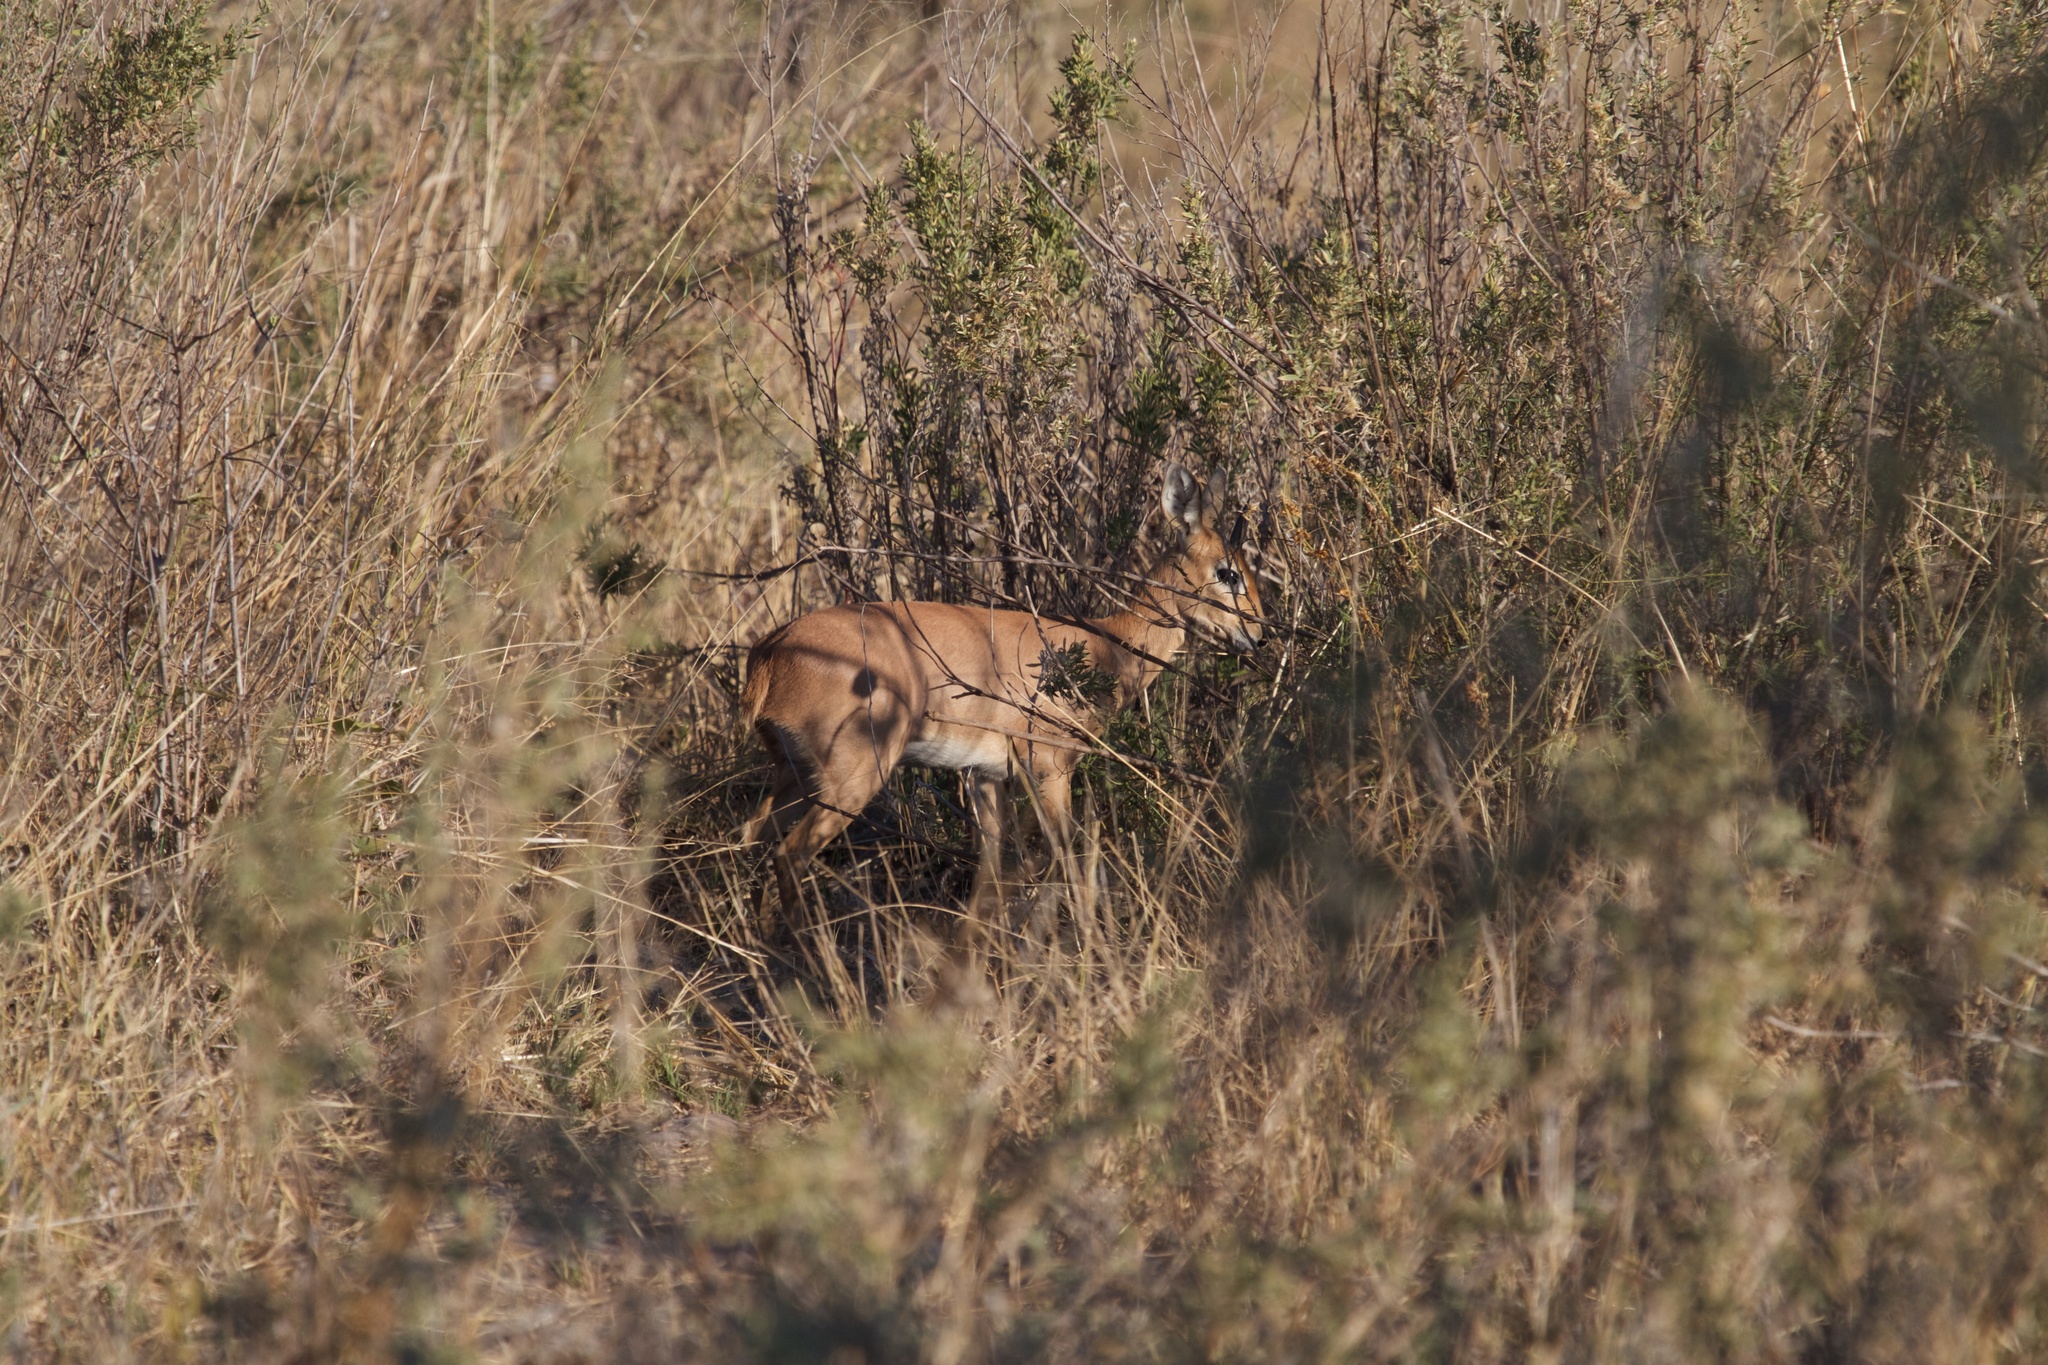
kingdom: Animalia
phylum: Chordata
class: Mammalia
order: Artiodactyla
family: Bovidae
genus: Raphicerus
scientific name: Raphicerus campestris
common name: Steenbok
